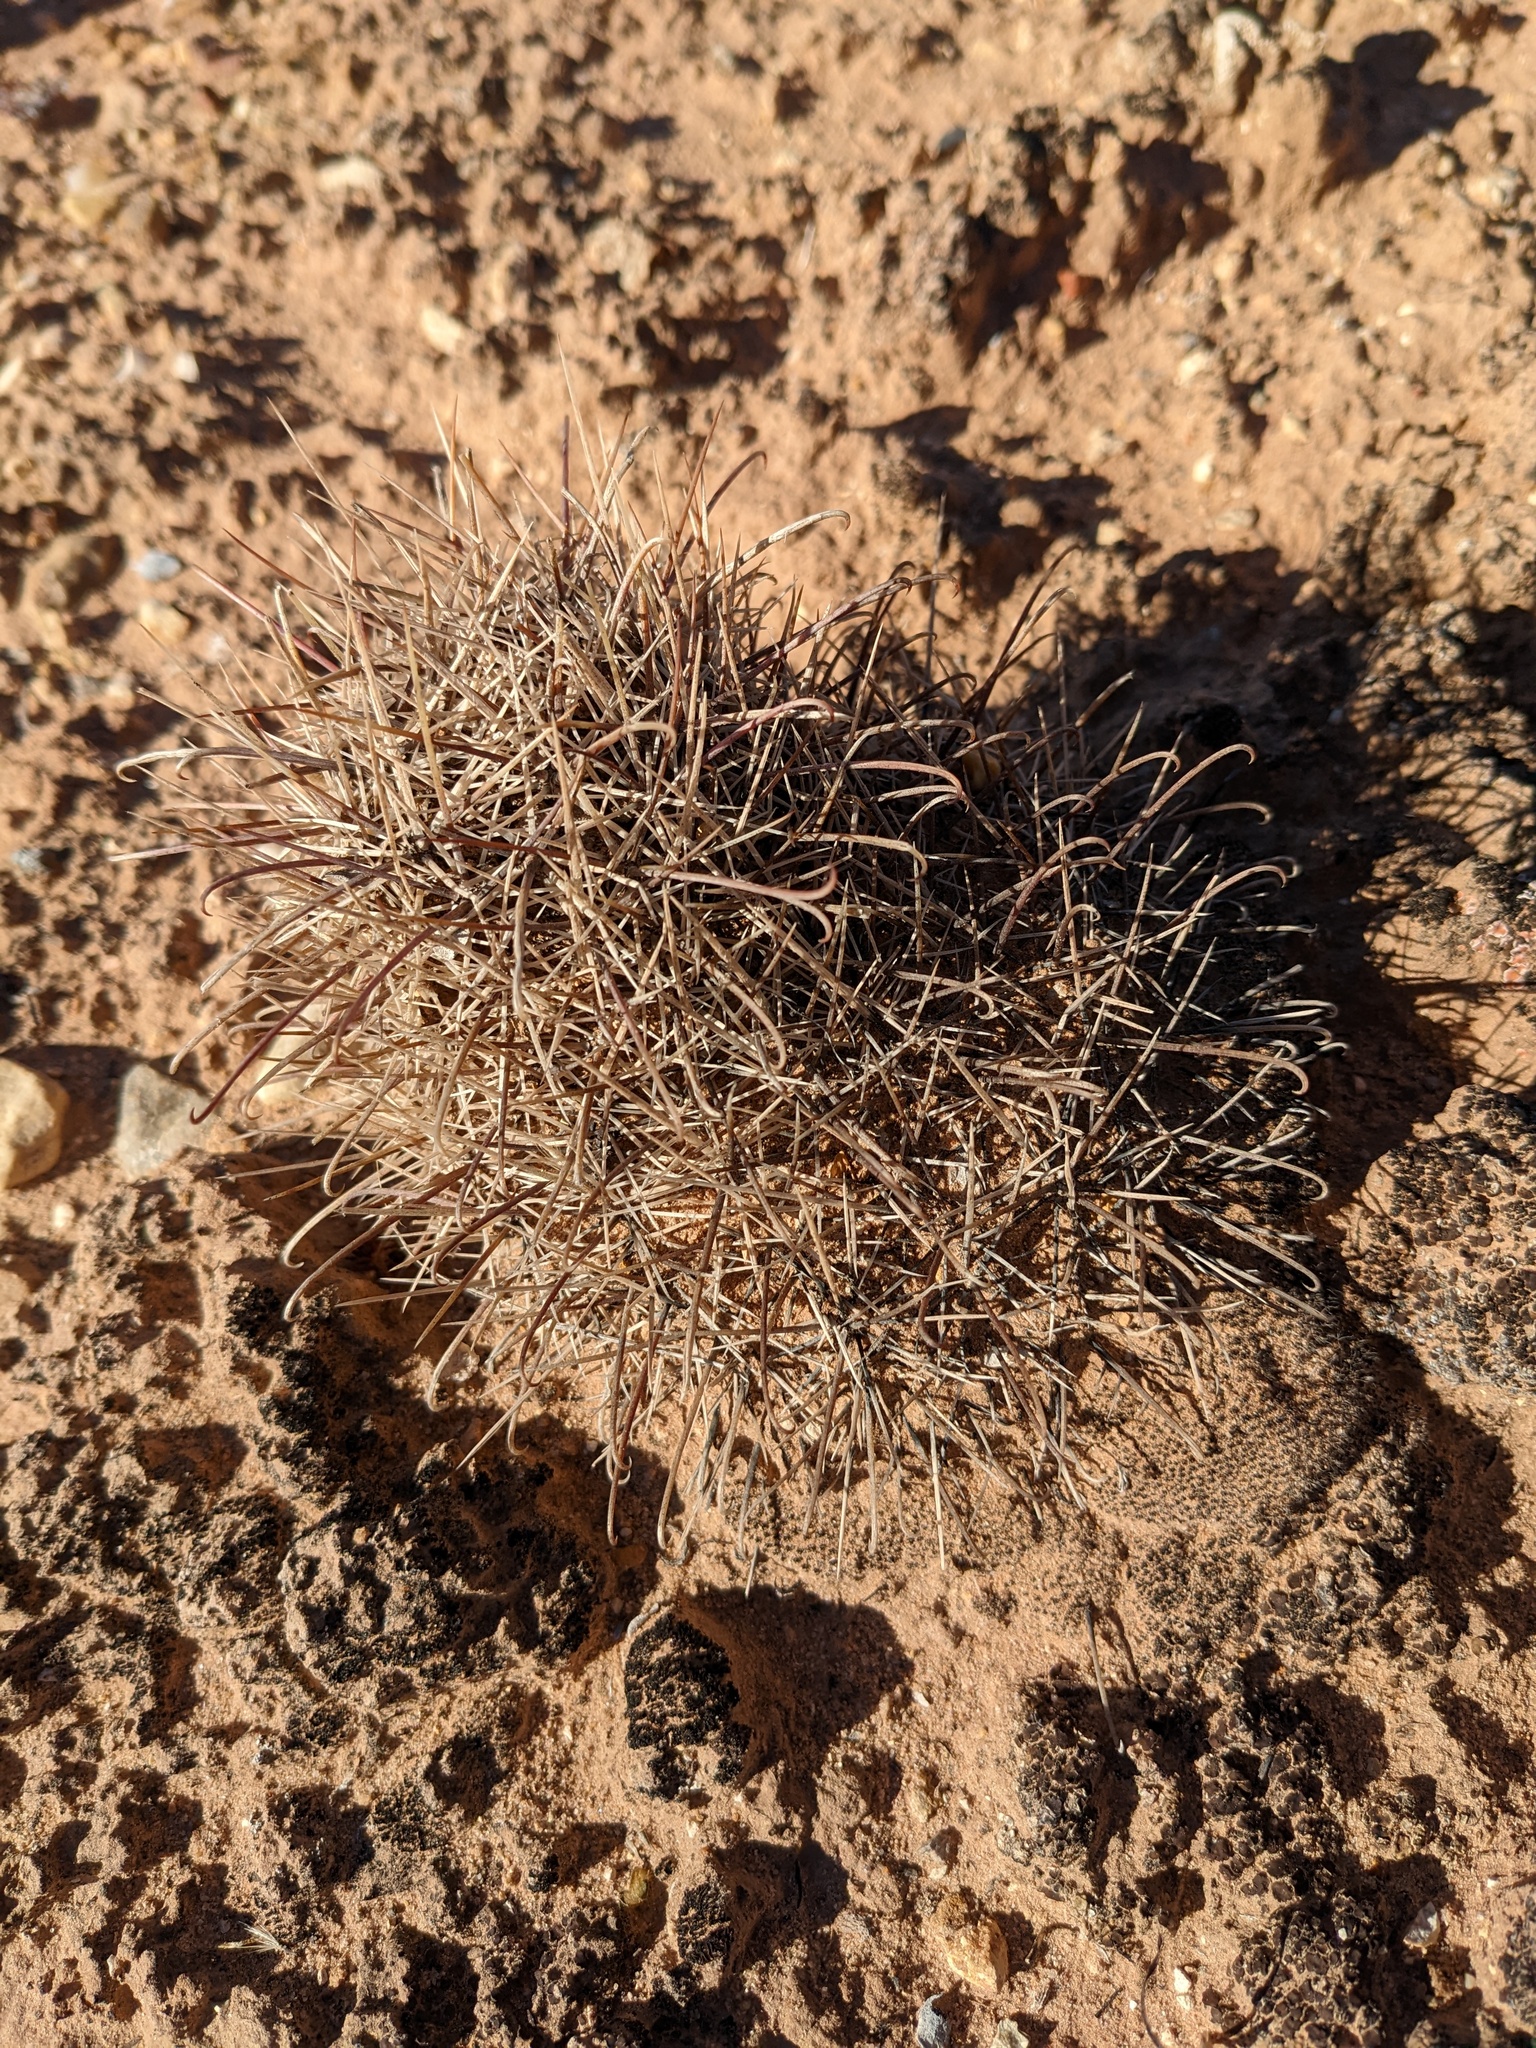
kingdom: Plantae
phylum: Tracheophyta
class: Magnoliopsida
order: Caryophyllales
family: Cactaceae
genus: Sclerocactus
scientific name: Sclerocactus parviflorus
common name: Small-flower fishhook cactus
